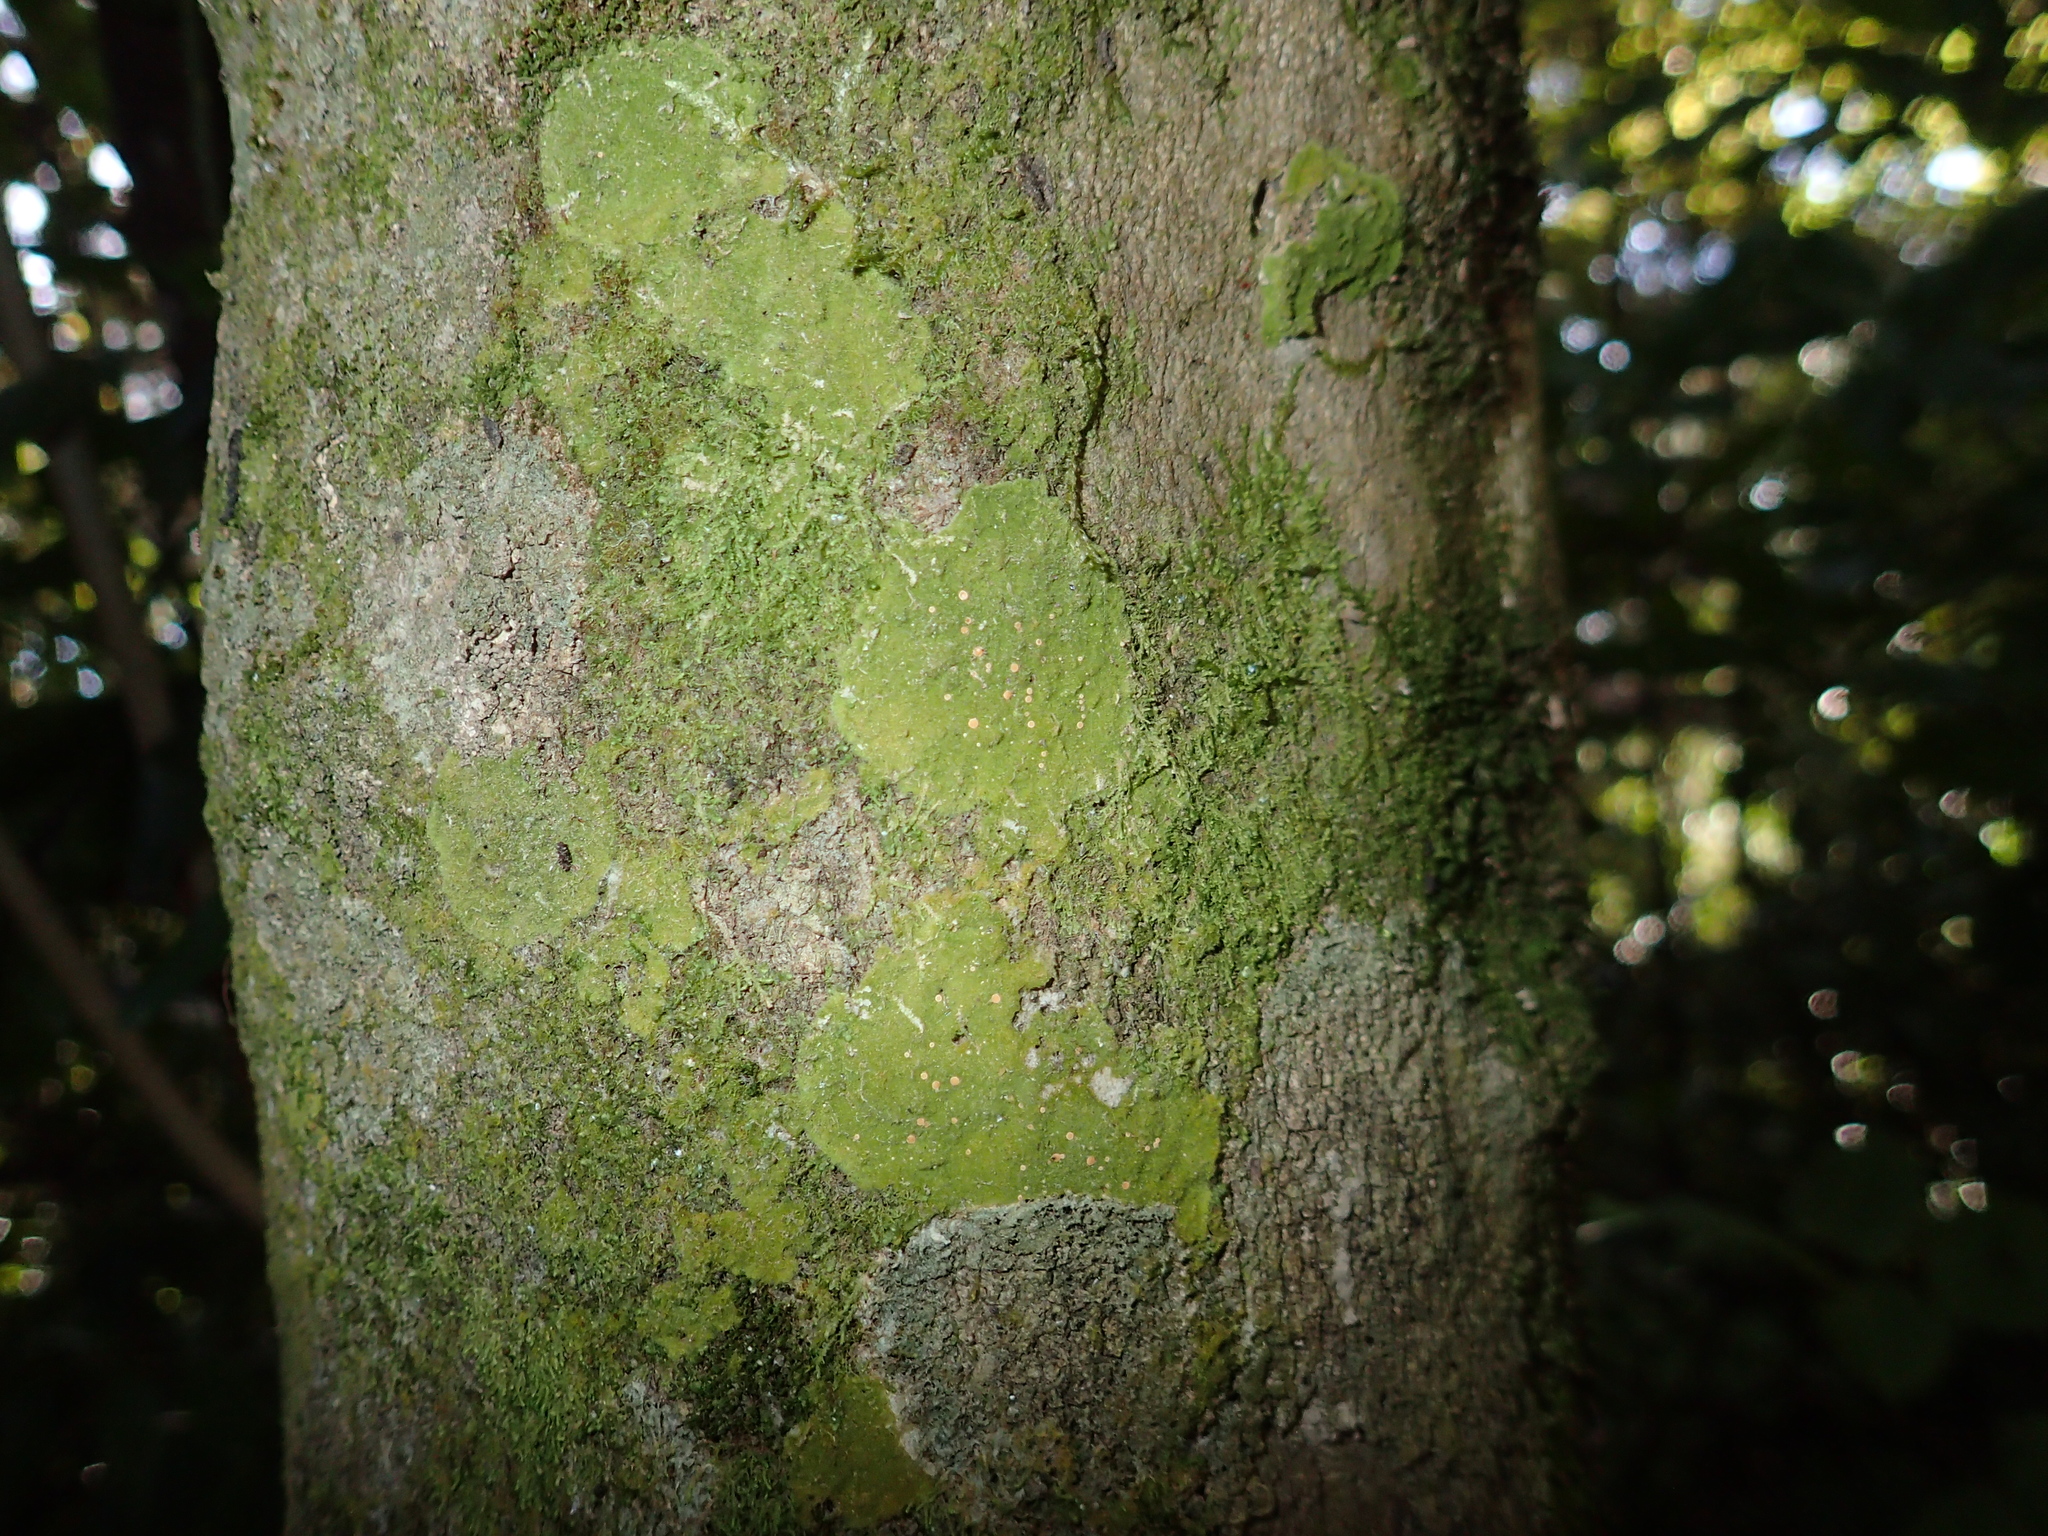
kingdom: Fungi
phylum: Ascomycota
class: Lecanoromycetes
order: Ostropales
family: Coenogoniaceae
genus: Coenogonium
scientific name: Coenogonium implexum
